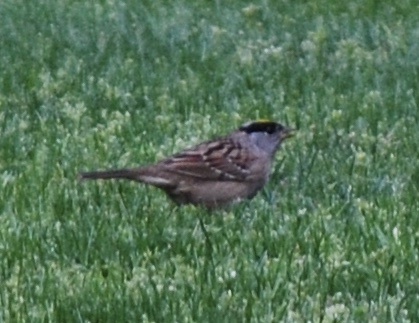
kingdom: Animalia
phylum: Chordata
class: Aves
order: Passeriformes
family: Passerellidae
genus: Zonotrichia
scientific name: Zonotrichia atricapilla
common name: Golden-crowned sparrow
